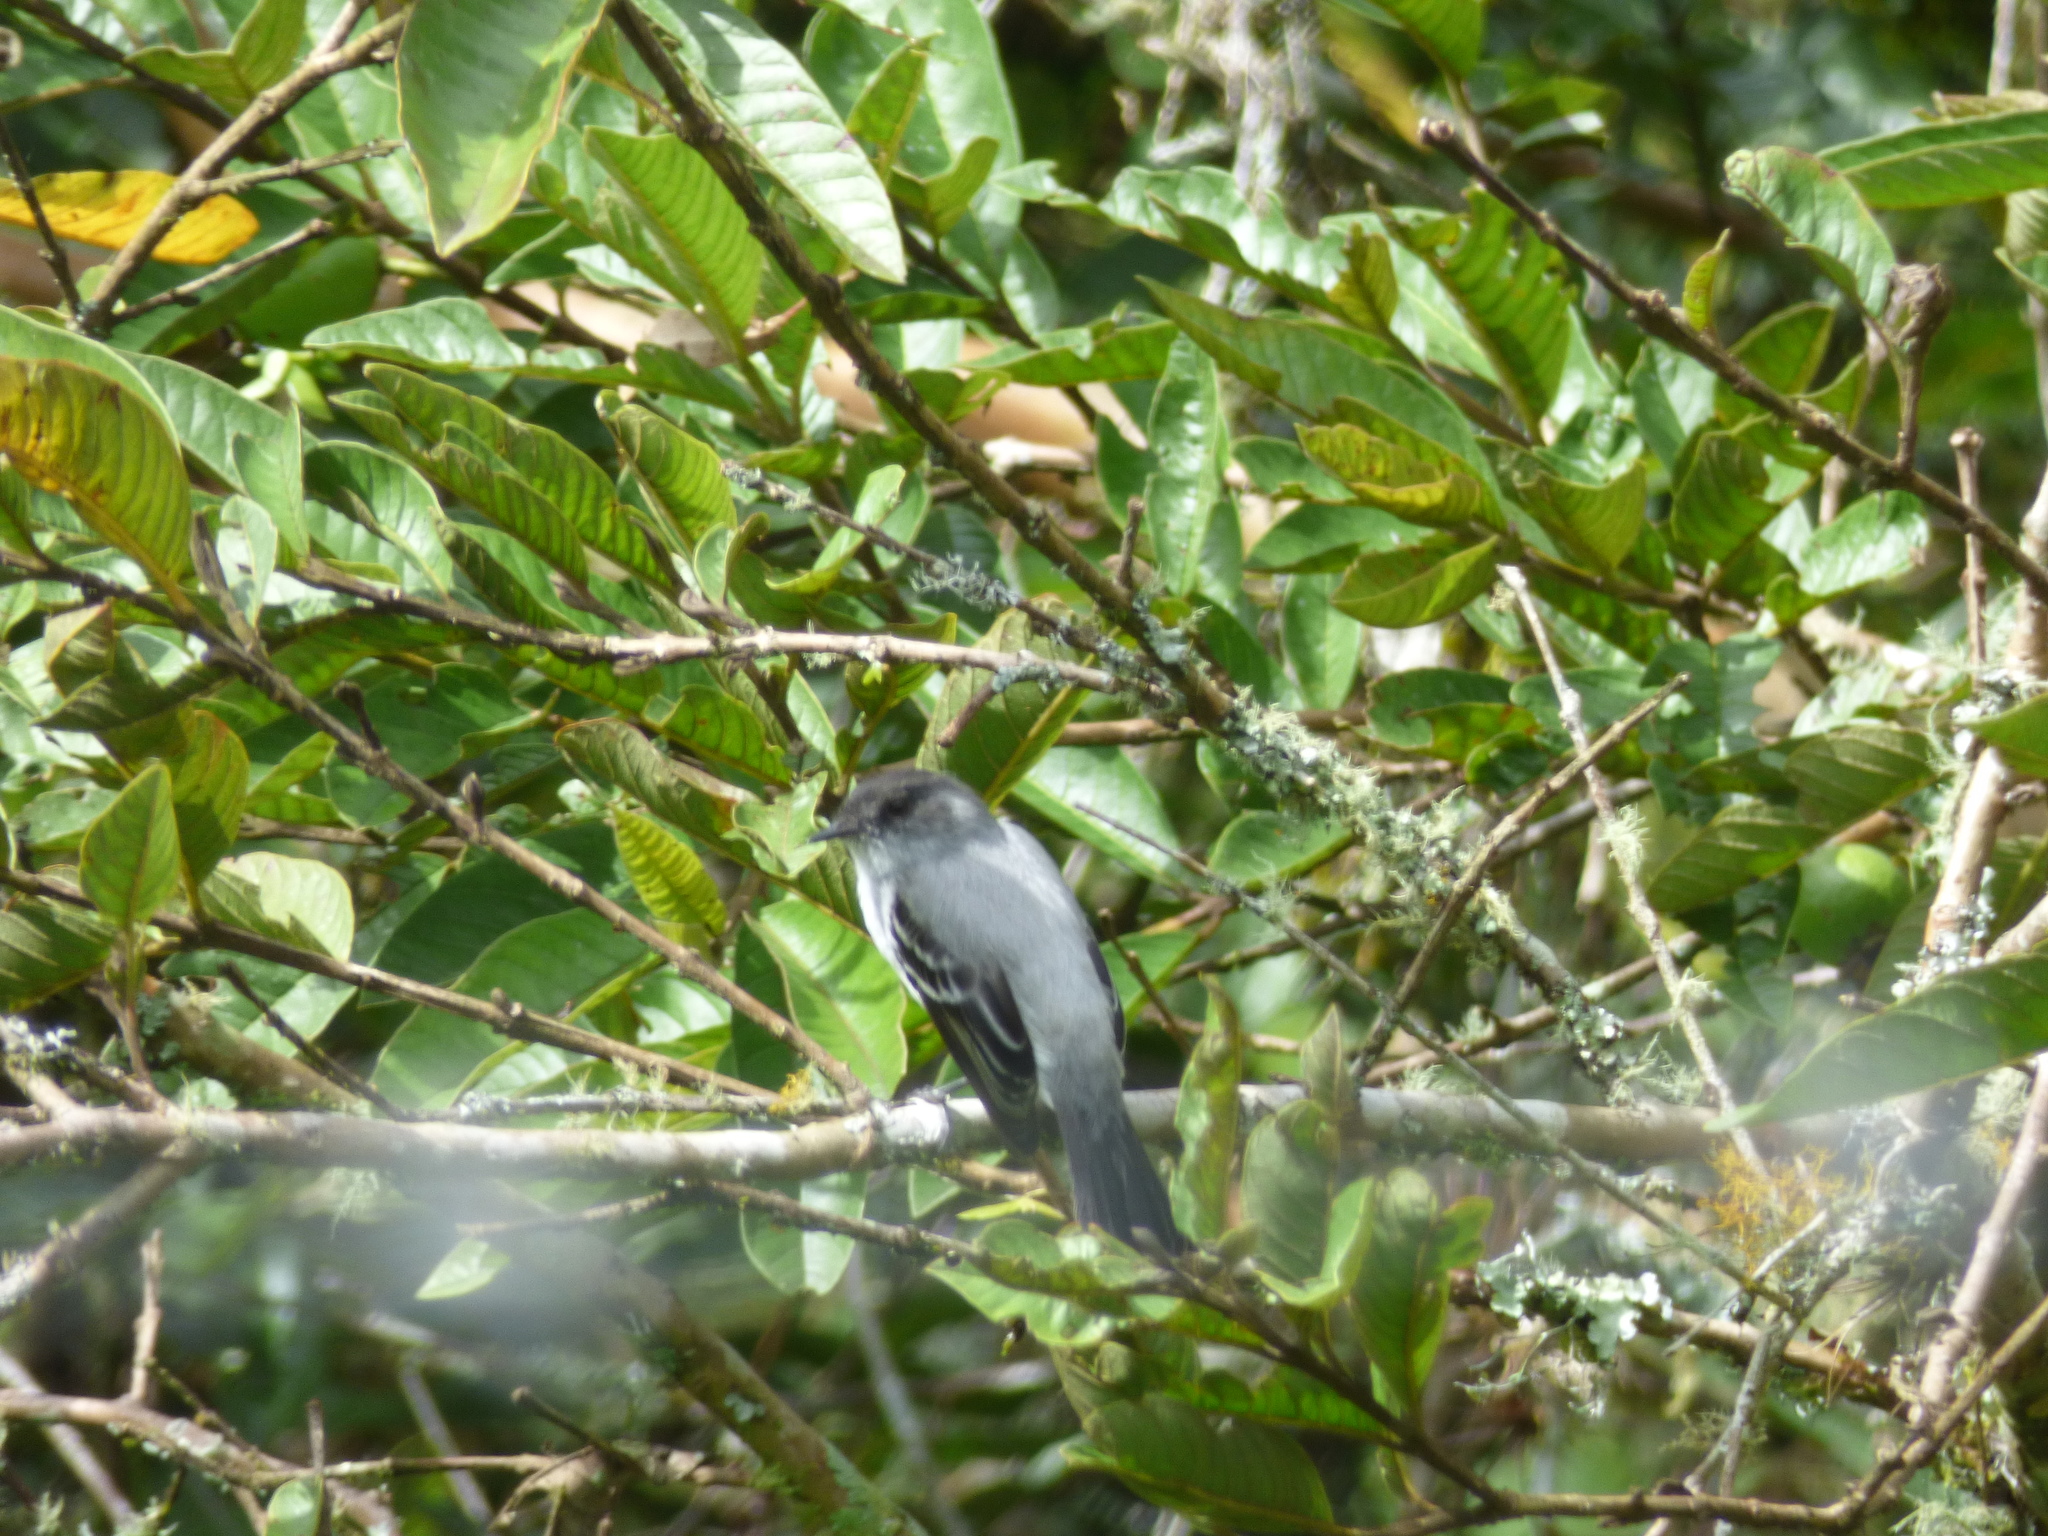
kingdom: Animalia
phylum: Chordata
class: Aves
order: Passeriformes
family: Tyrannidae
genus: Serpophaga
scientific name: Serpophaga cinerea
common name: Torrent tyrannulet
